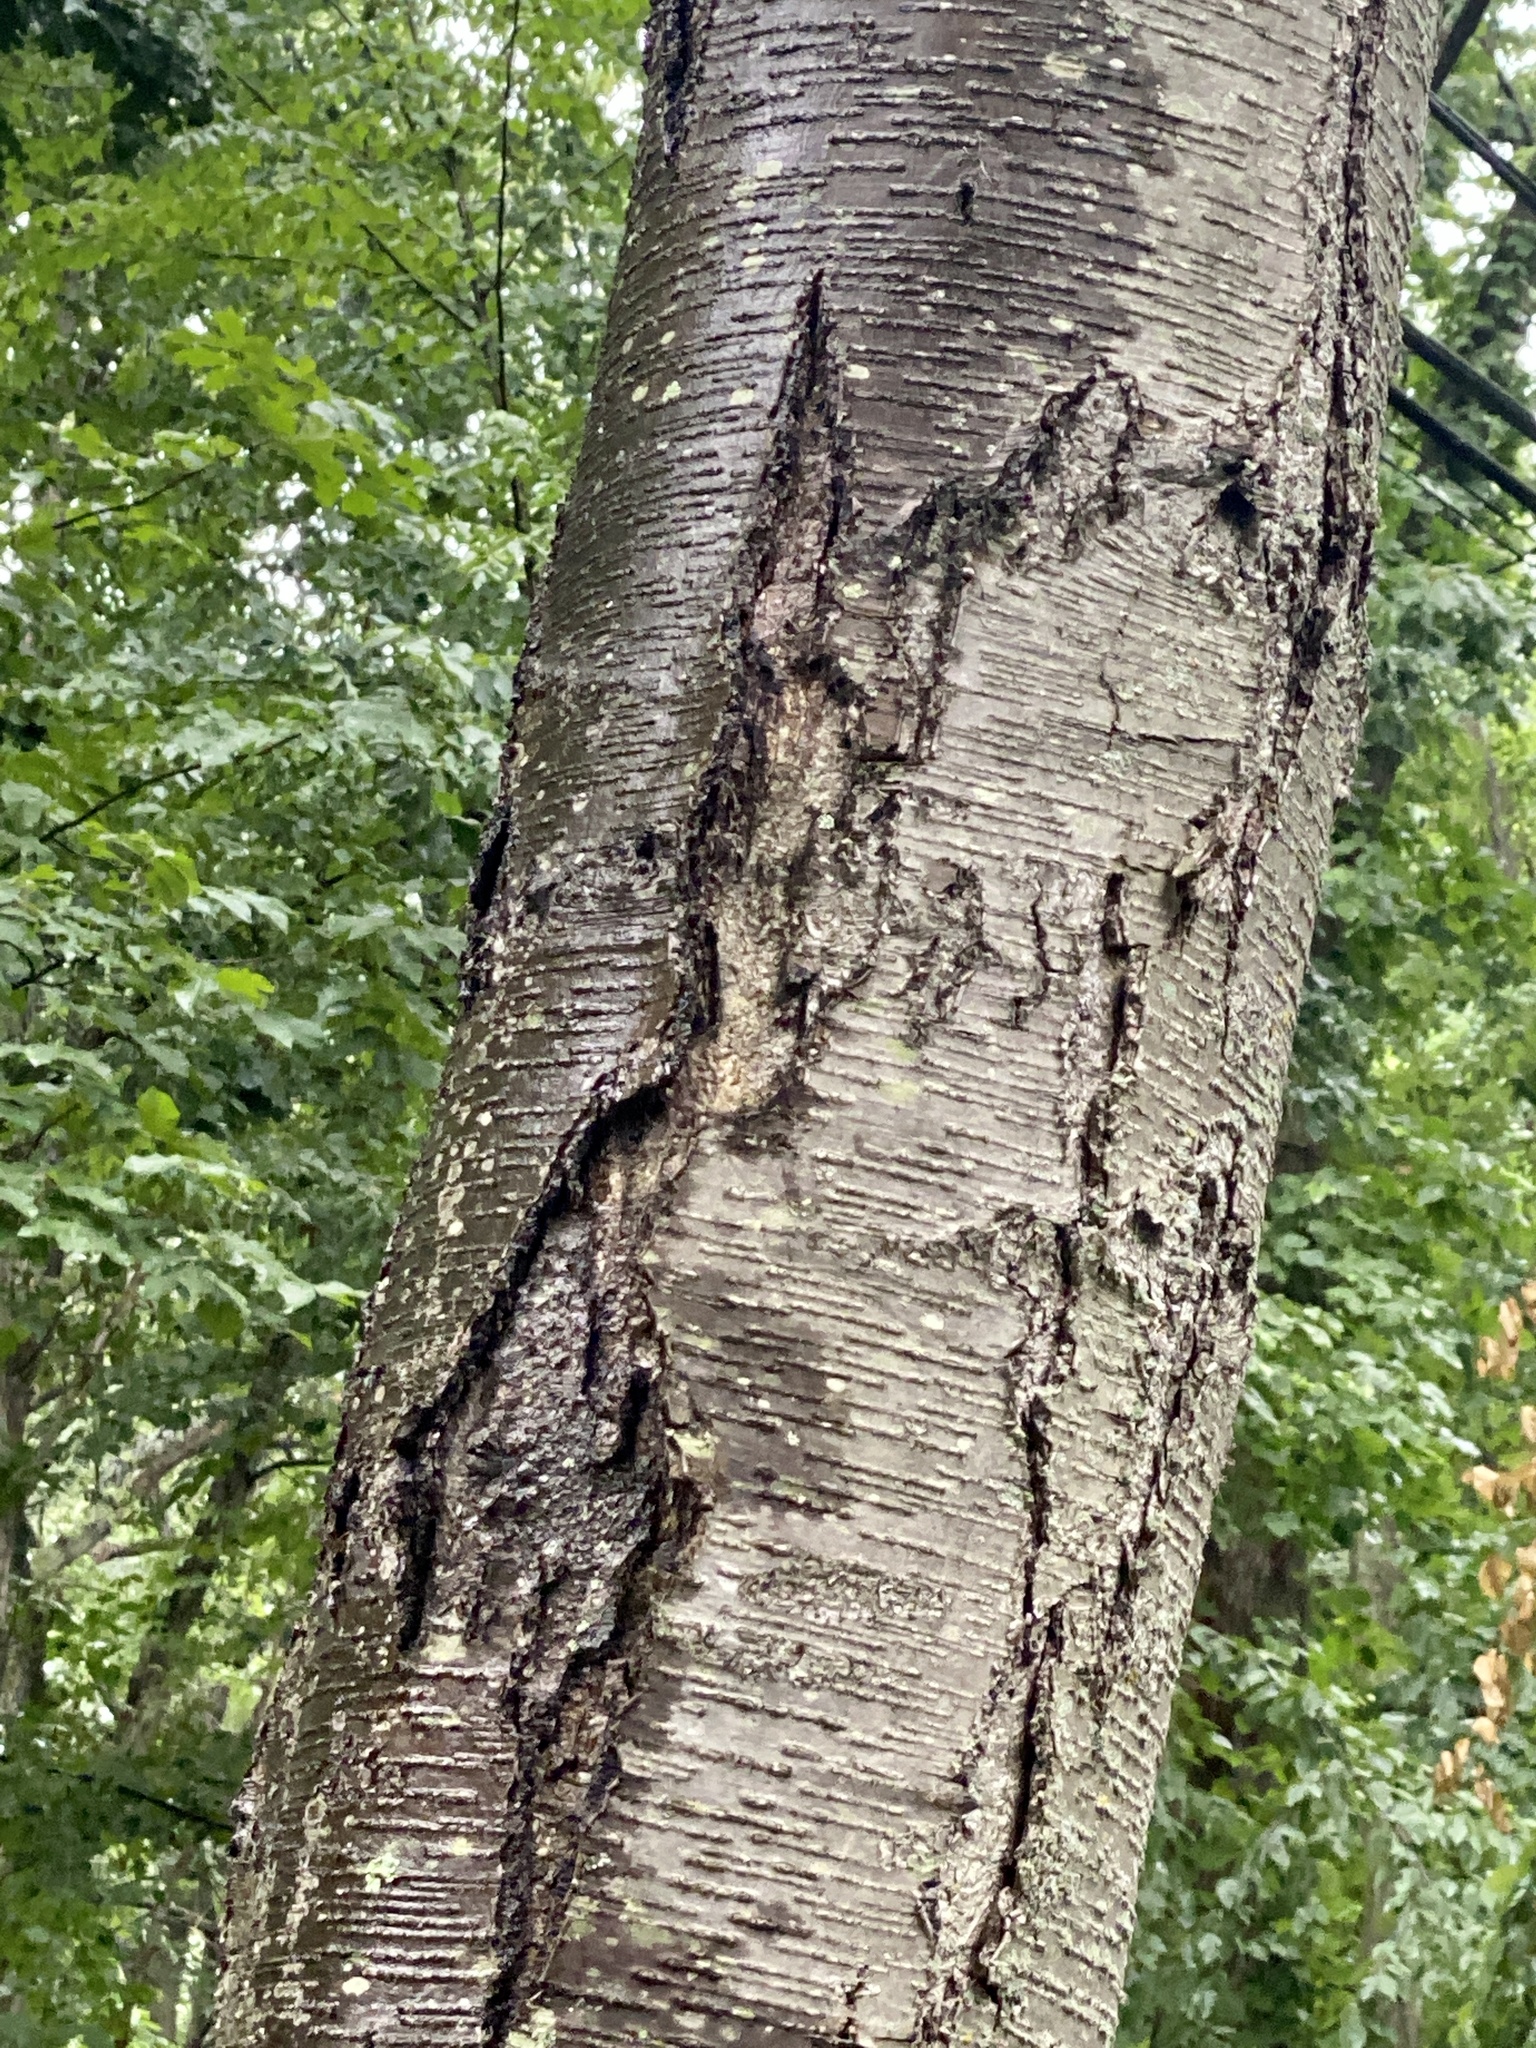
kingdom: Plantae
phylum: Tracheophyta
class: Magnoliopsida
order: Fagales
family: Betulaceae
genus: Betula
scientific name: Betula lenta
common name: Black birch
